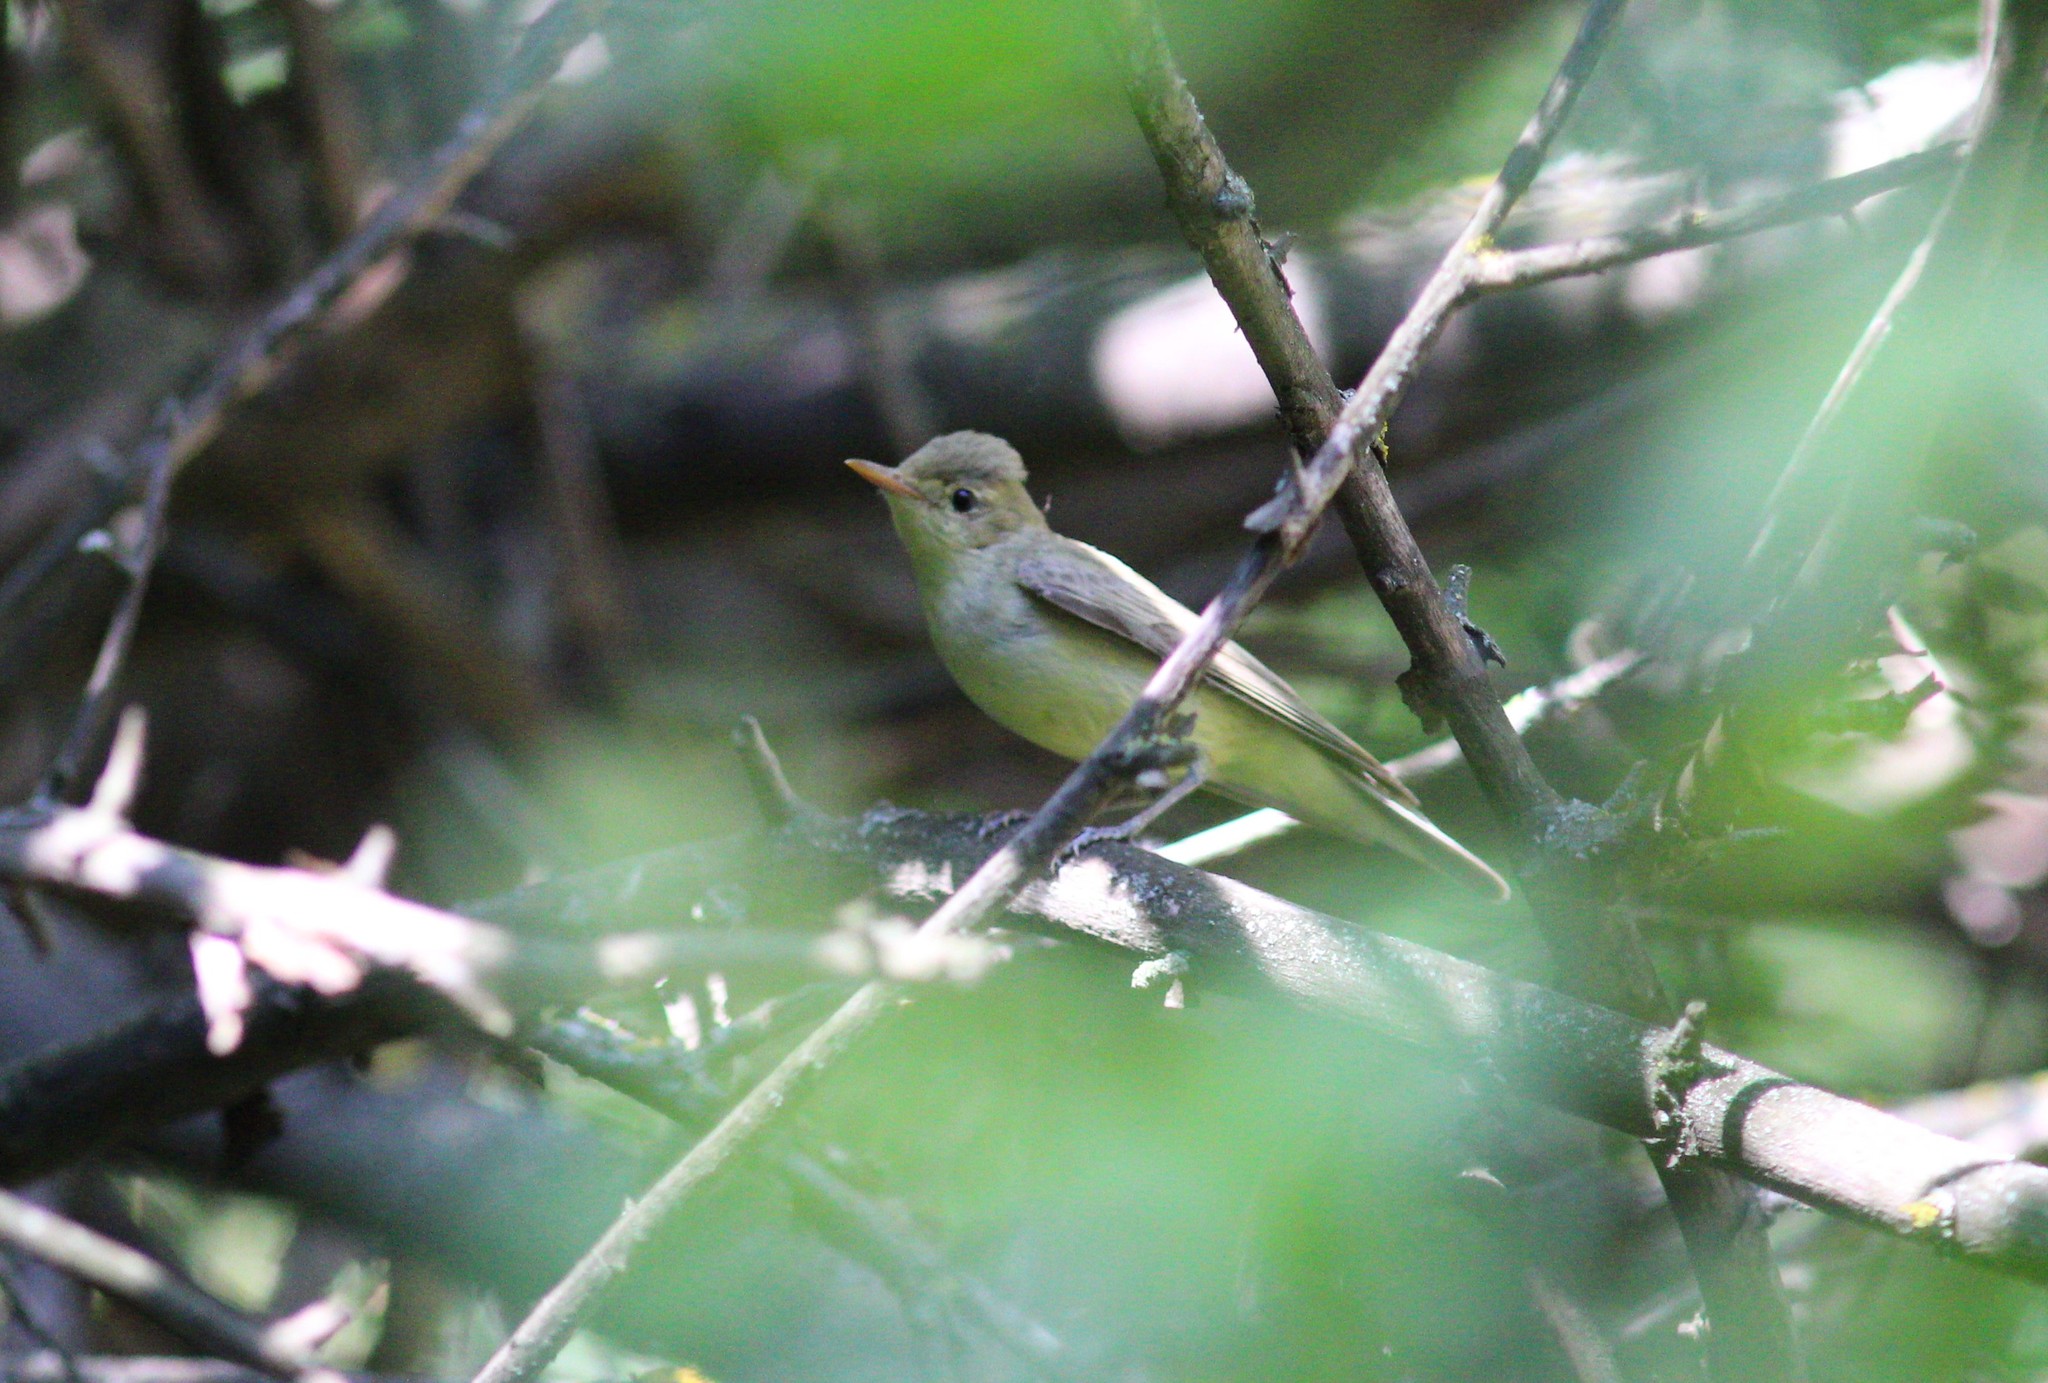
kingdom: Animalia
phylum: Chordata
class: Aves
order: Passeriformes
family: Acrocephalidae
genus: Hippolais
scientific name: Hippolais icterina
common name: Icterine warbler
